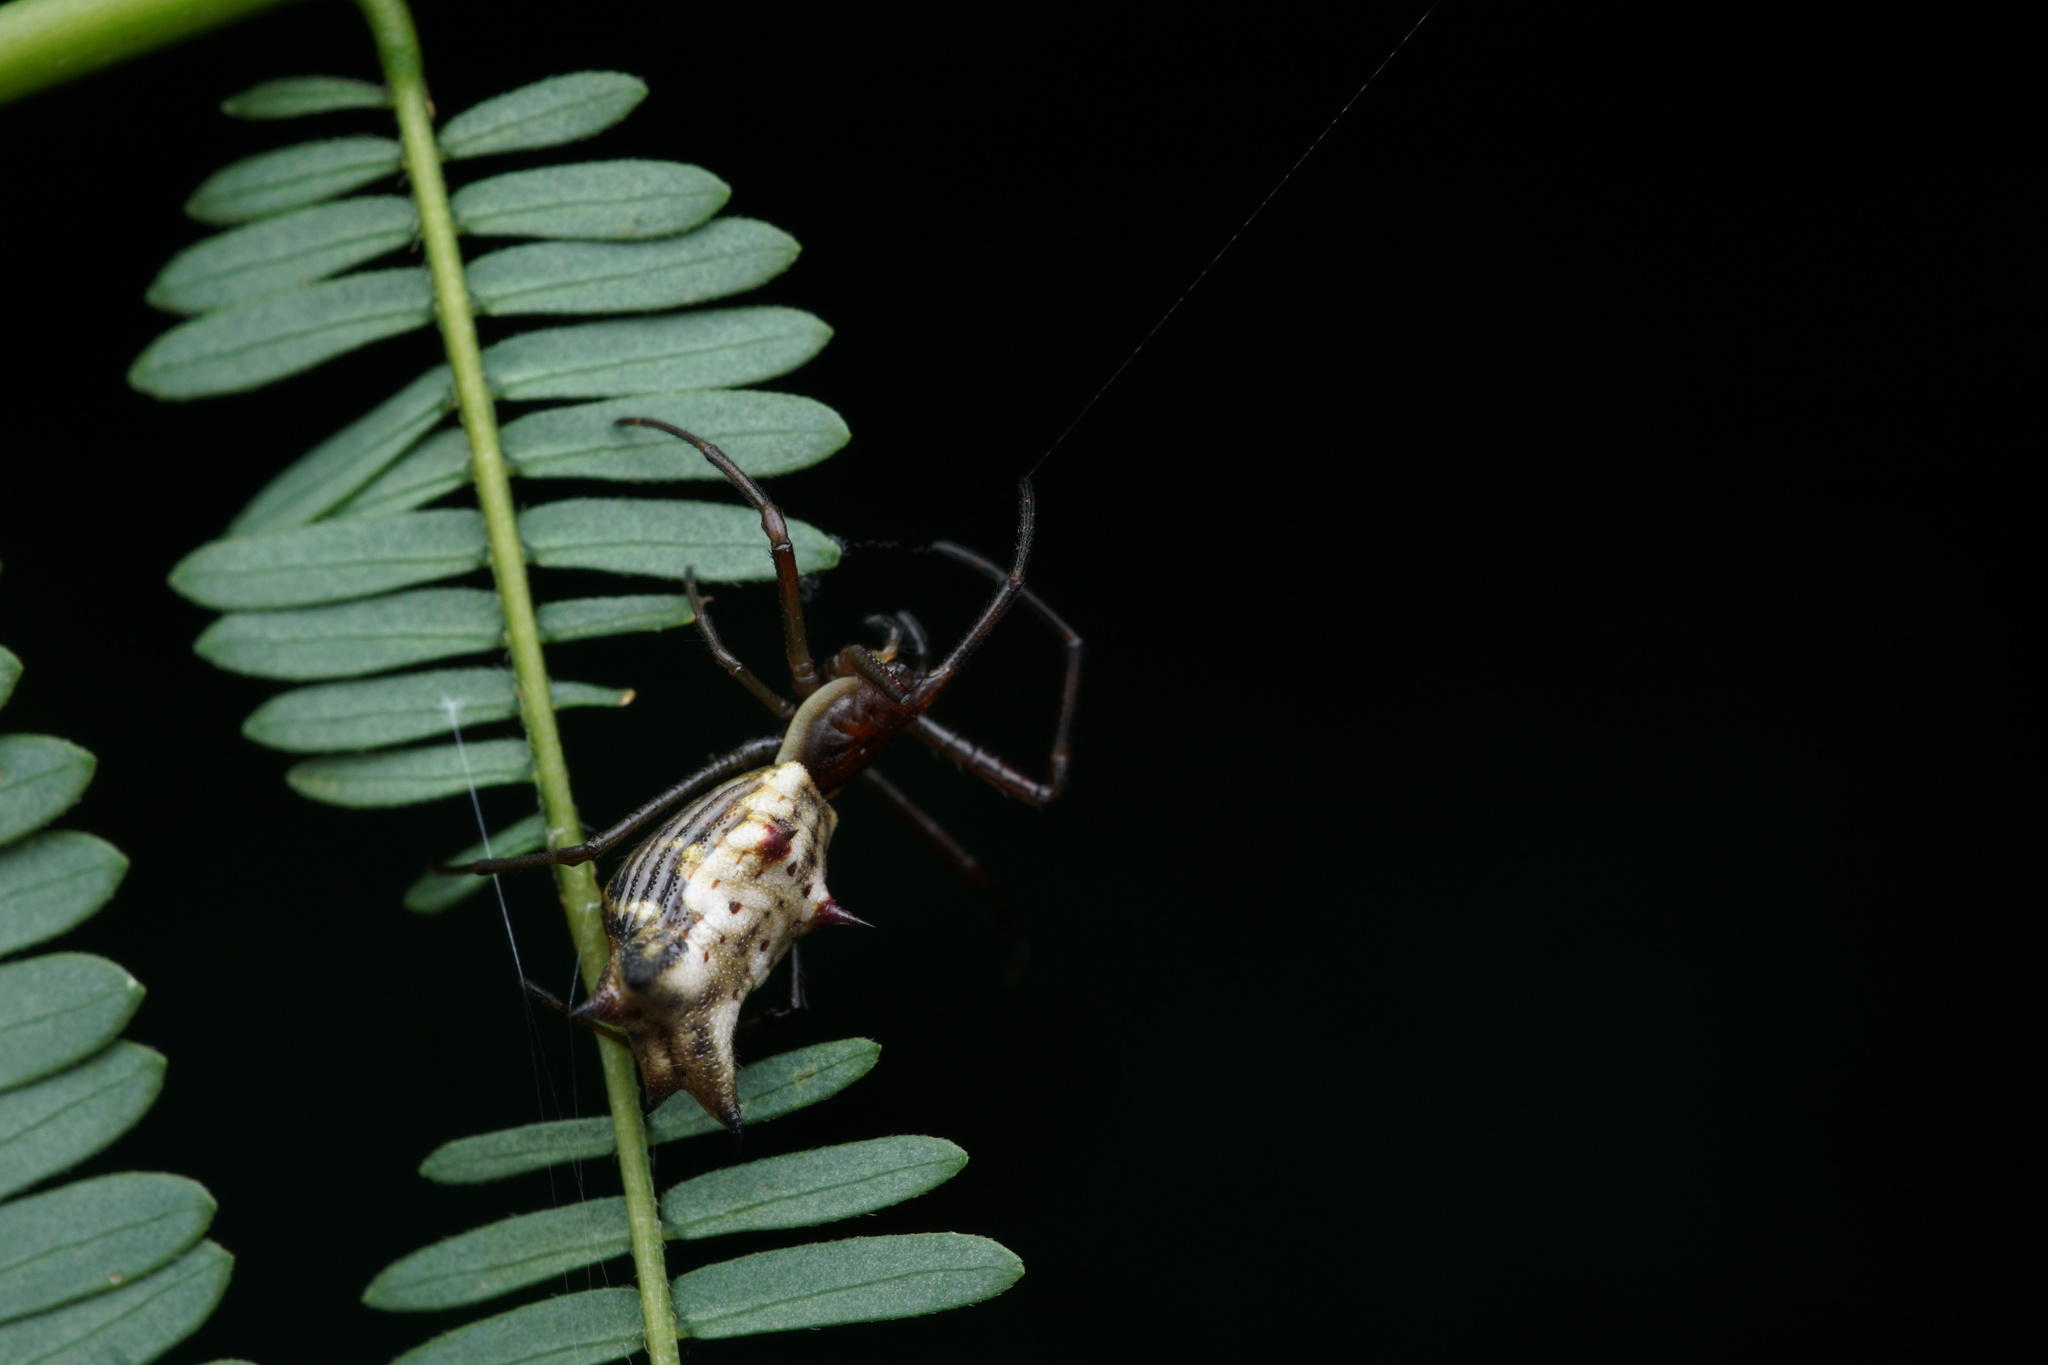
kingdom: Animalia
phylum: Arthropoda
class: Arachnida
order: Araneae
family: Araneidae
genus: Micrathena
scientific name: Micrathena nigrichelis
